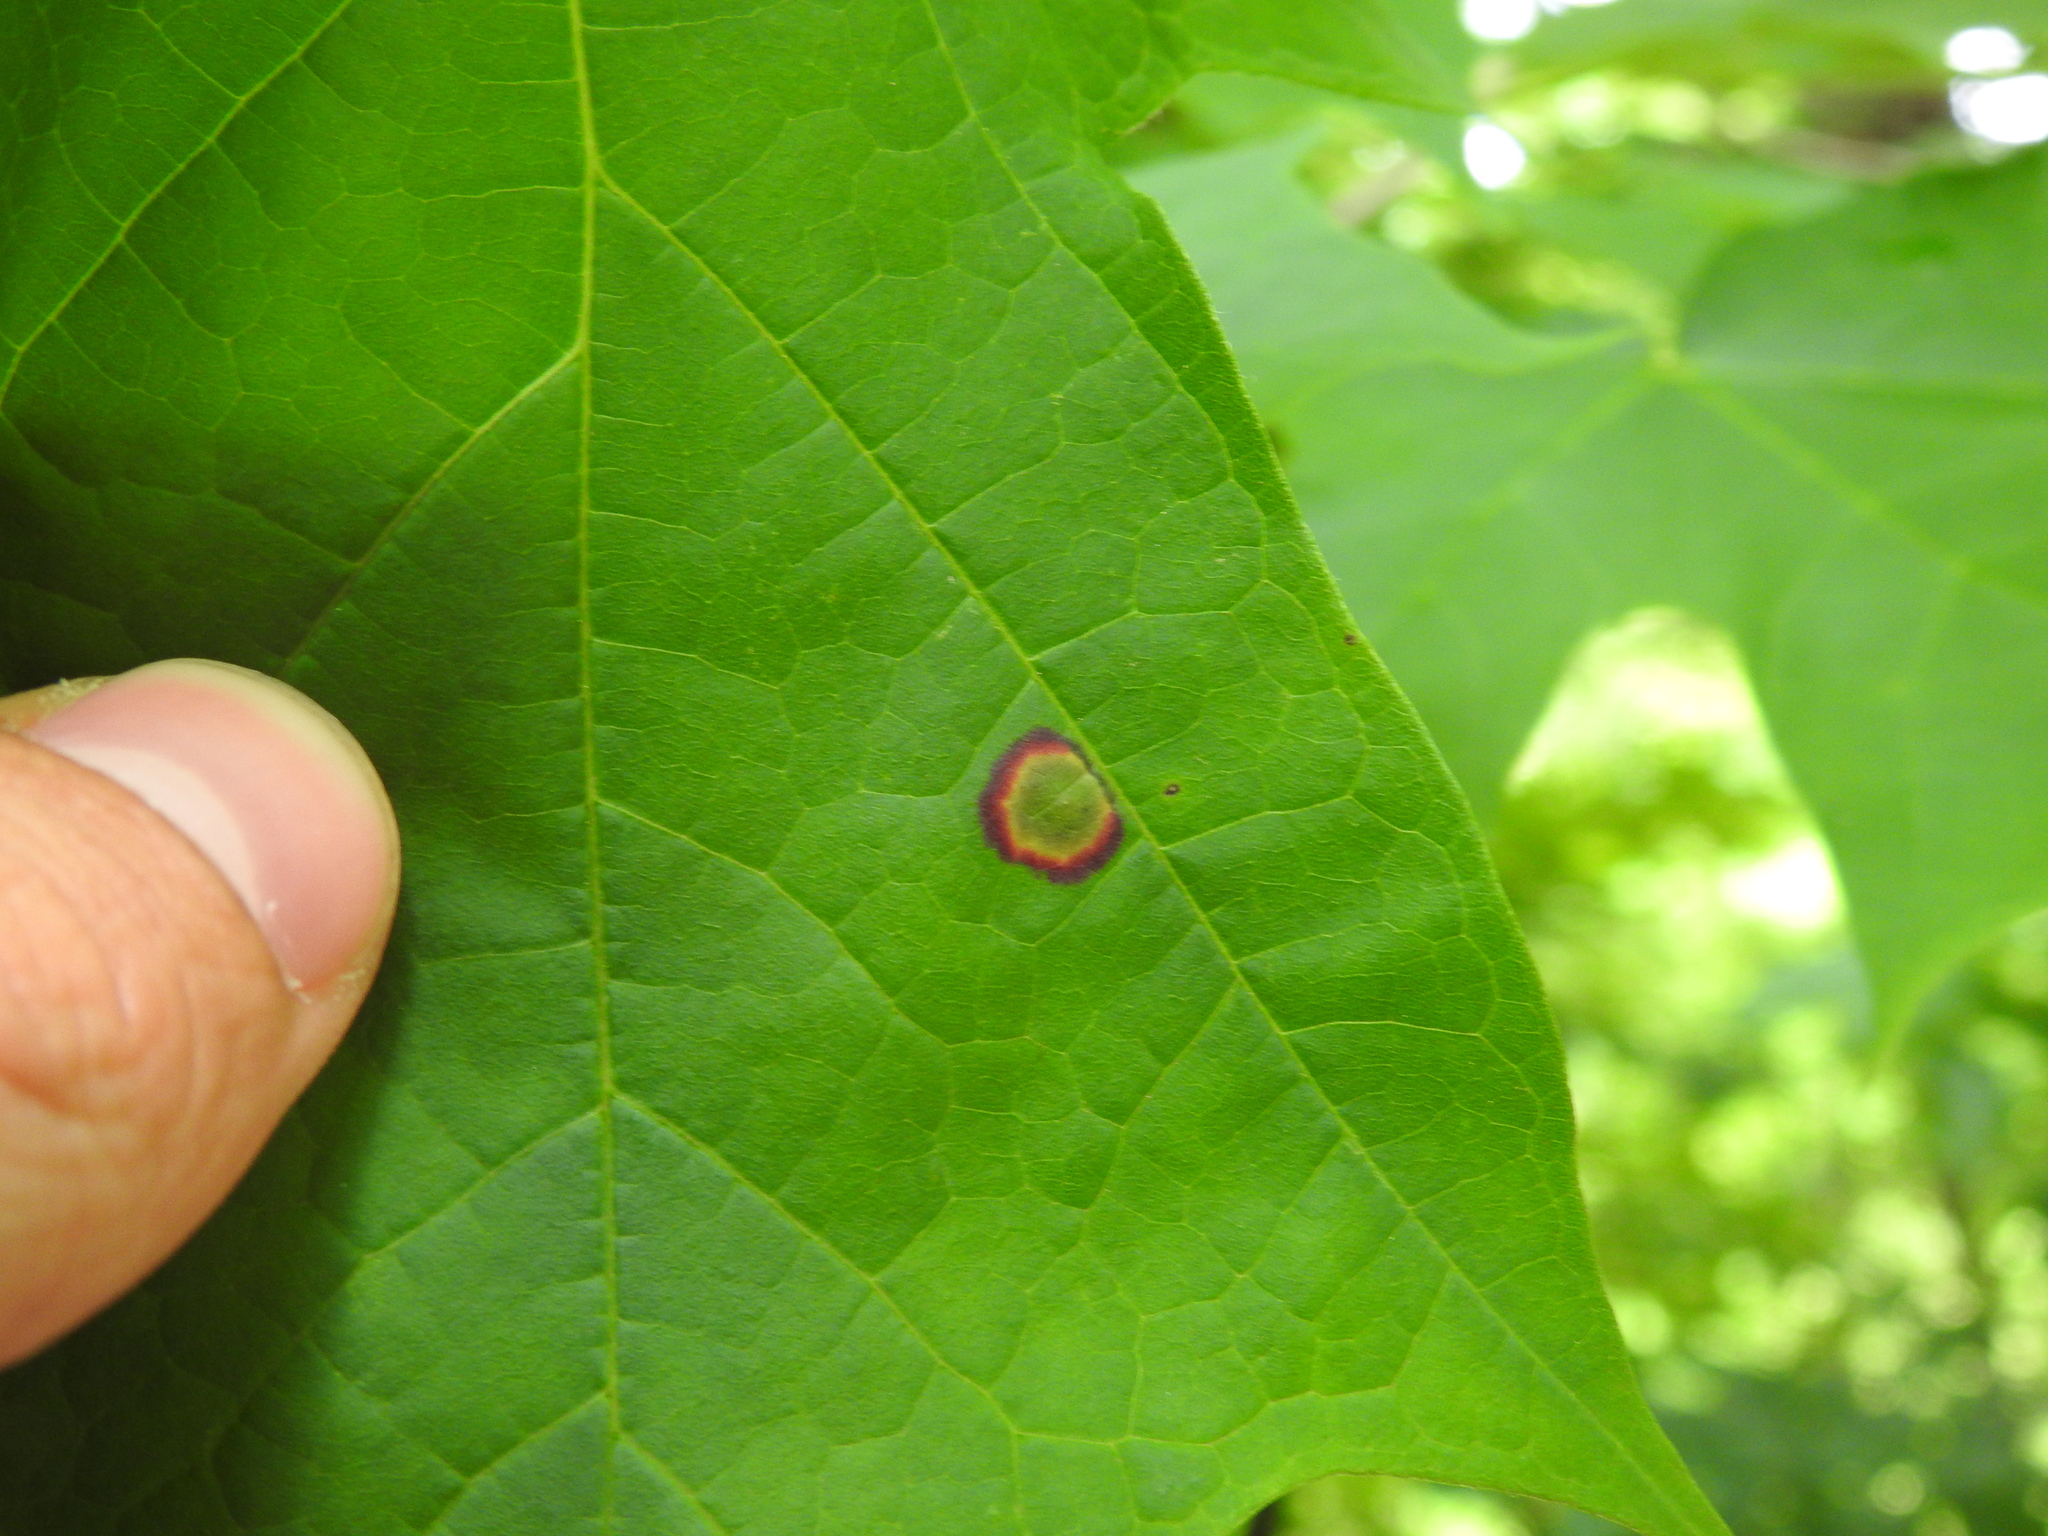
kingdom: Animalia
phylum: Arthropoda
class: Insecta
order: Diptera
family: Cecidomyiidae
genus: Acericecis
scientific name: Acericecis ocellaris
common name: Ocellate gall midge
